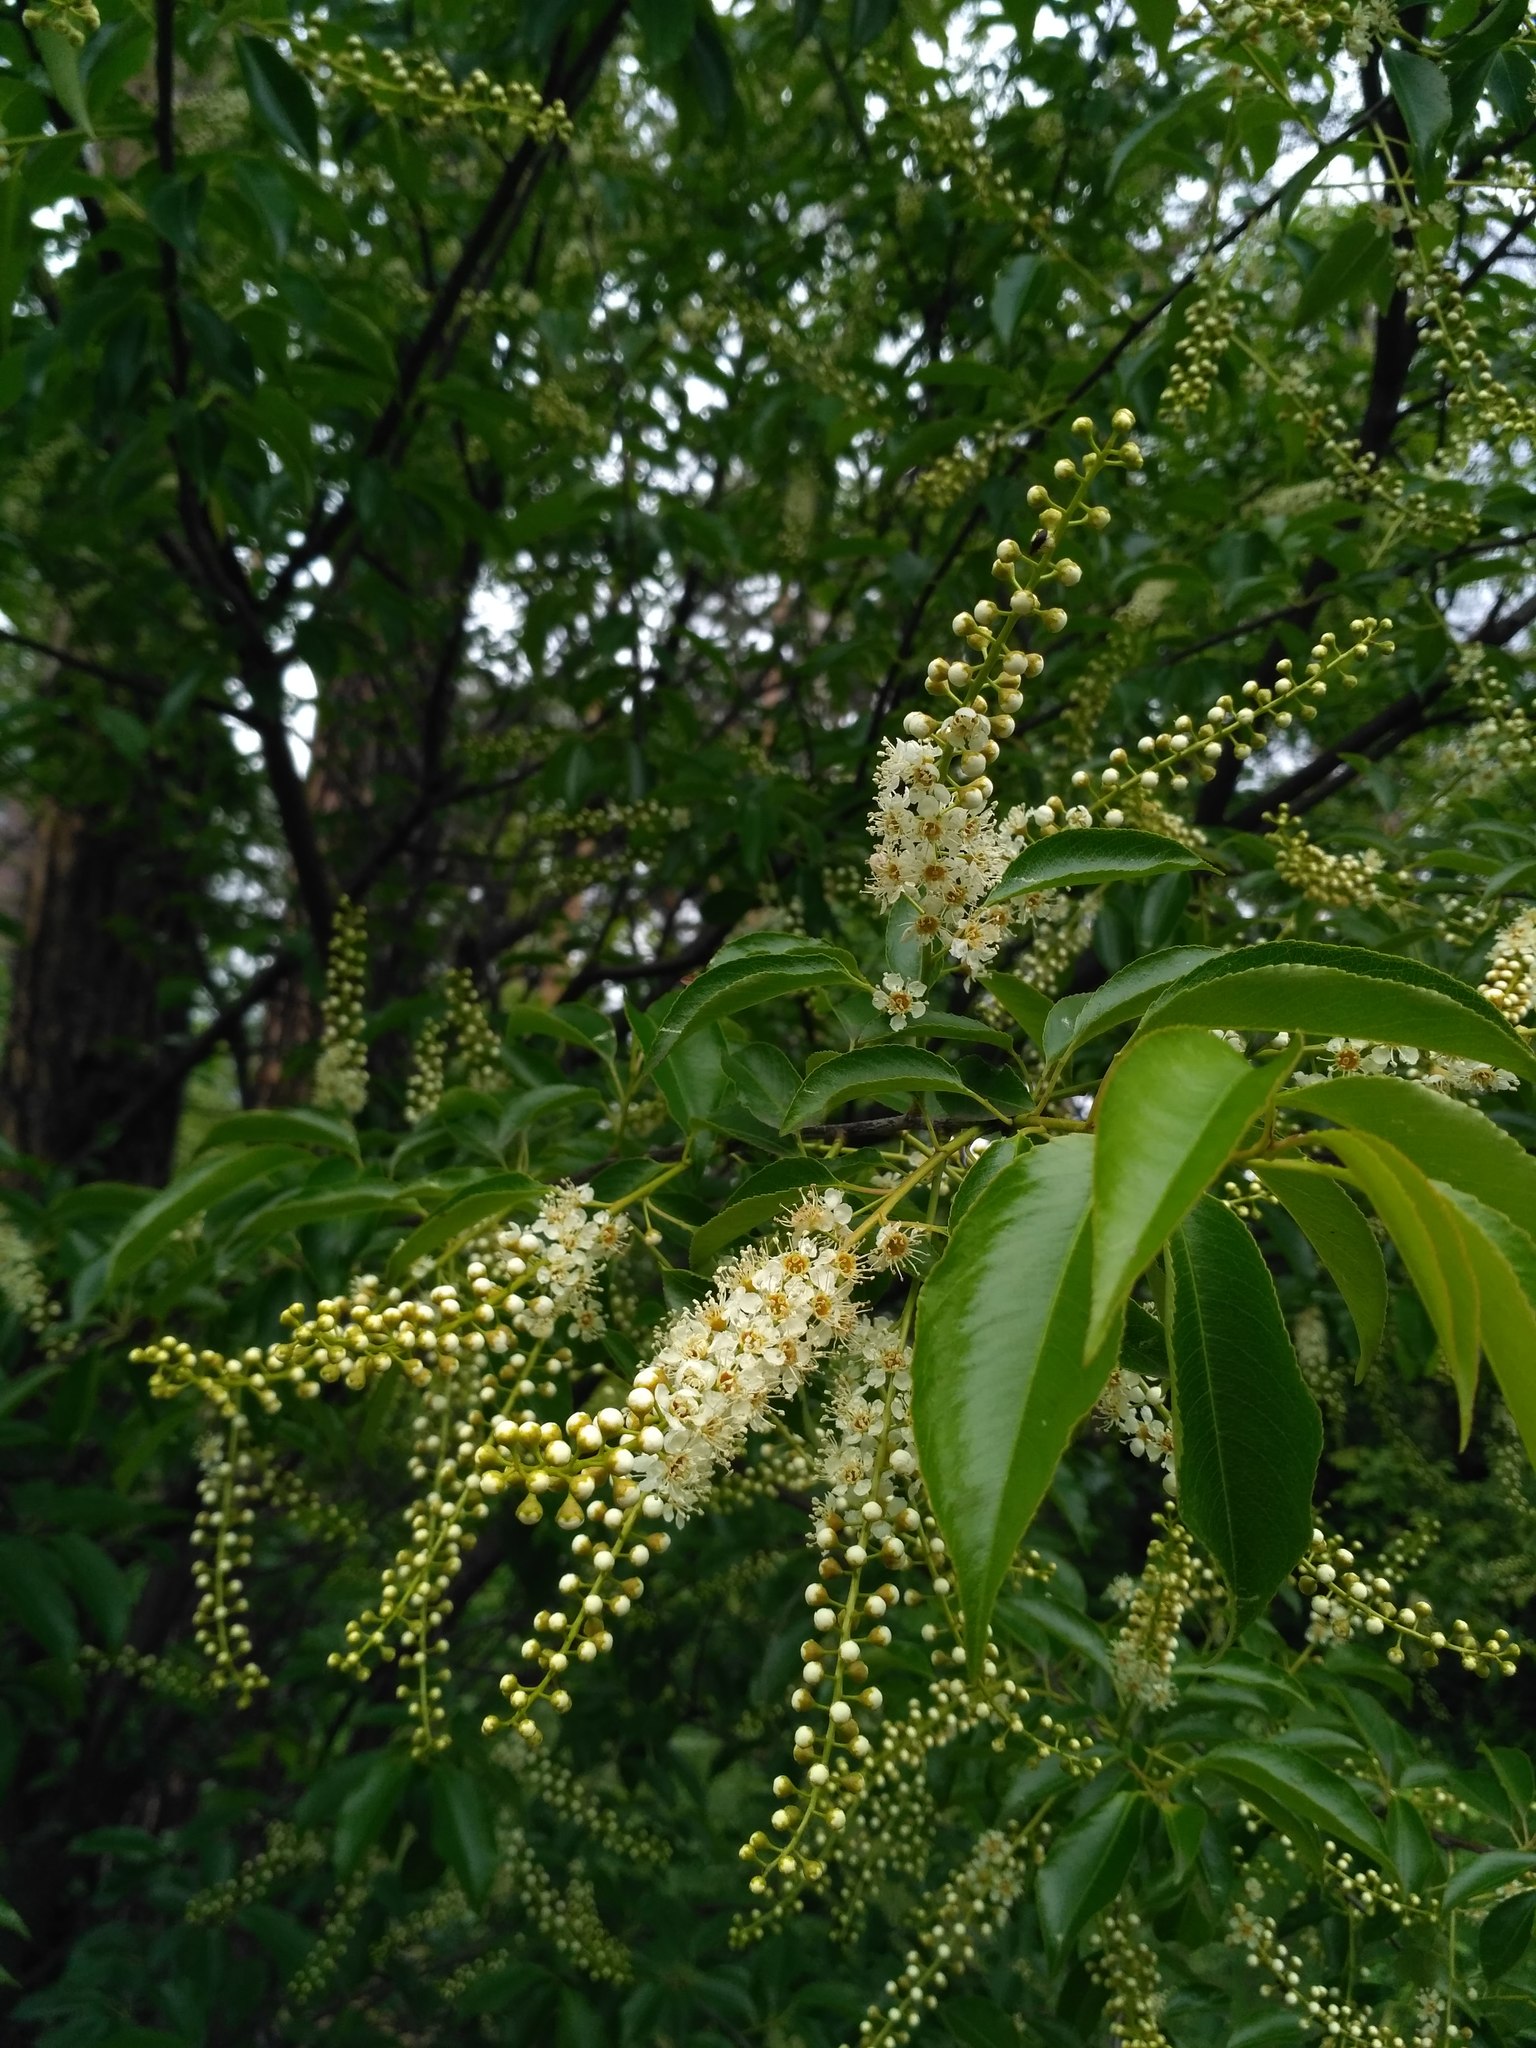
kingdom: Plantae
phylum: Tracheophyta
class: Magnoliopsida
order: Rosales
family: Rosaceae
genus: Prunus
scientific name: Prunus serotina
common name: Black cherry
